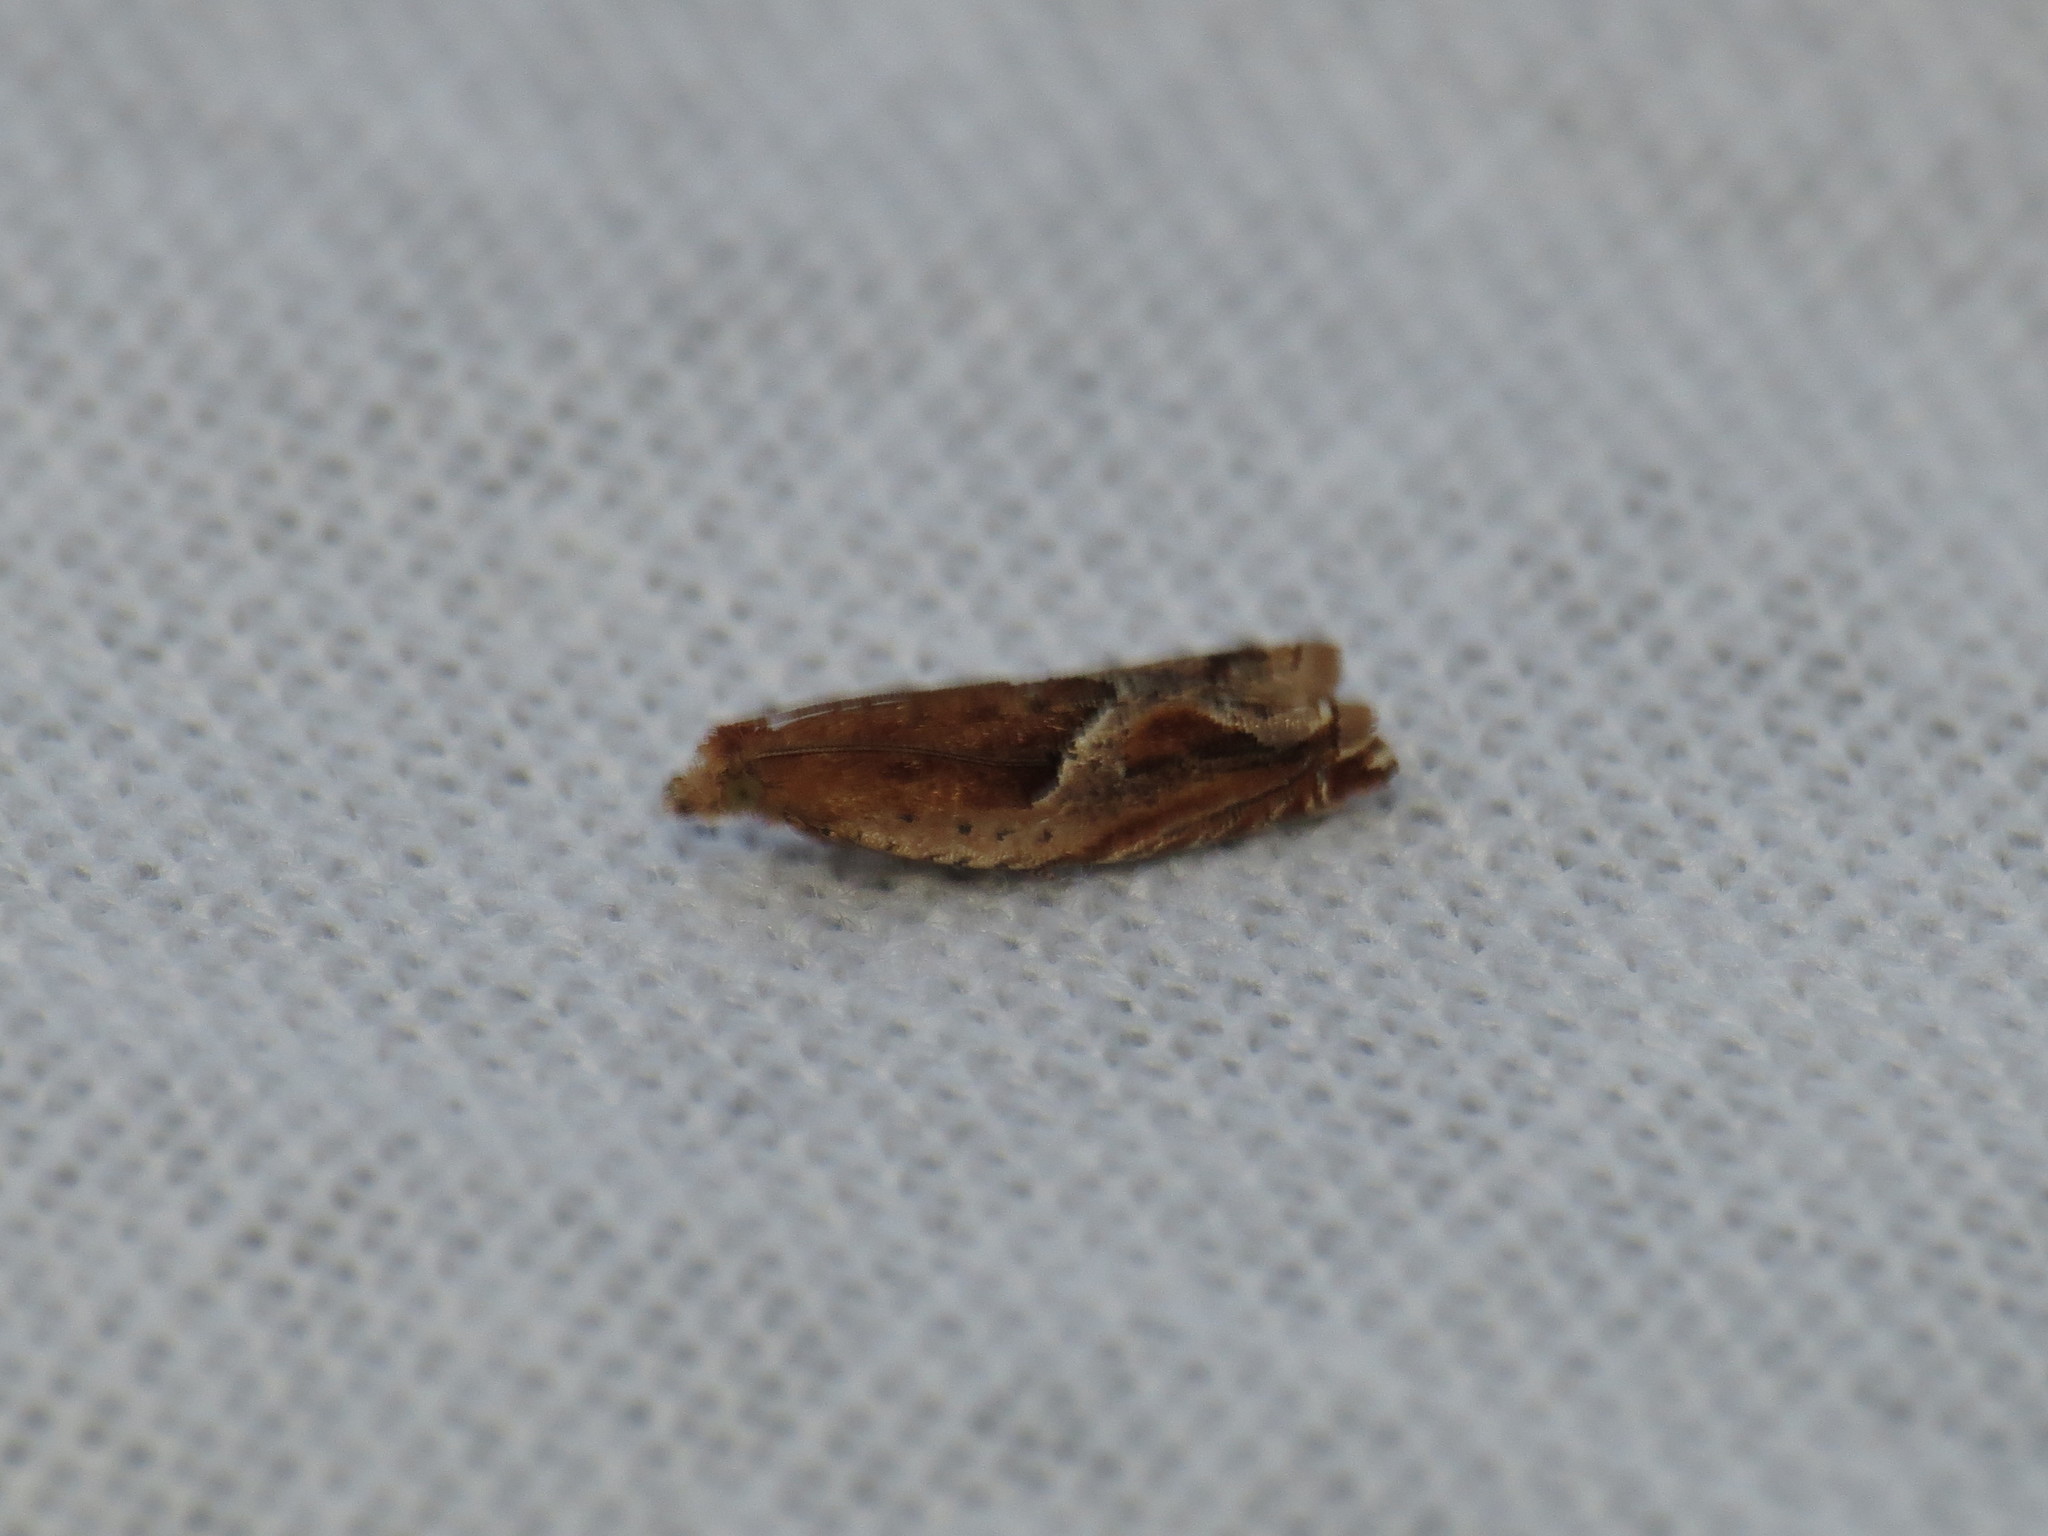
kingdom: Animalia
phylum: Arthropoda
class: Insecta
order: Lepidoptera
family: Tortricidae
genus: Ancylis
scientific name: Ancylis comptana
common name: Little roller
